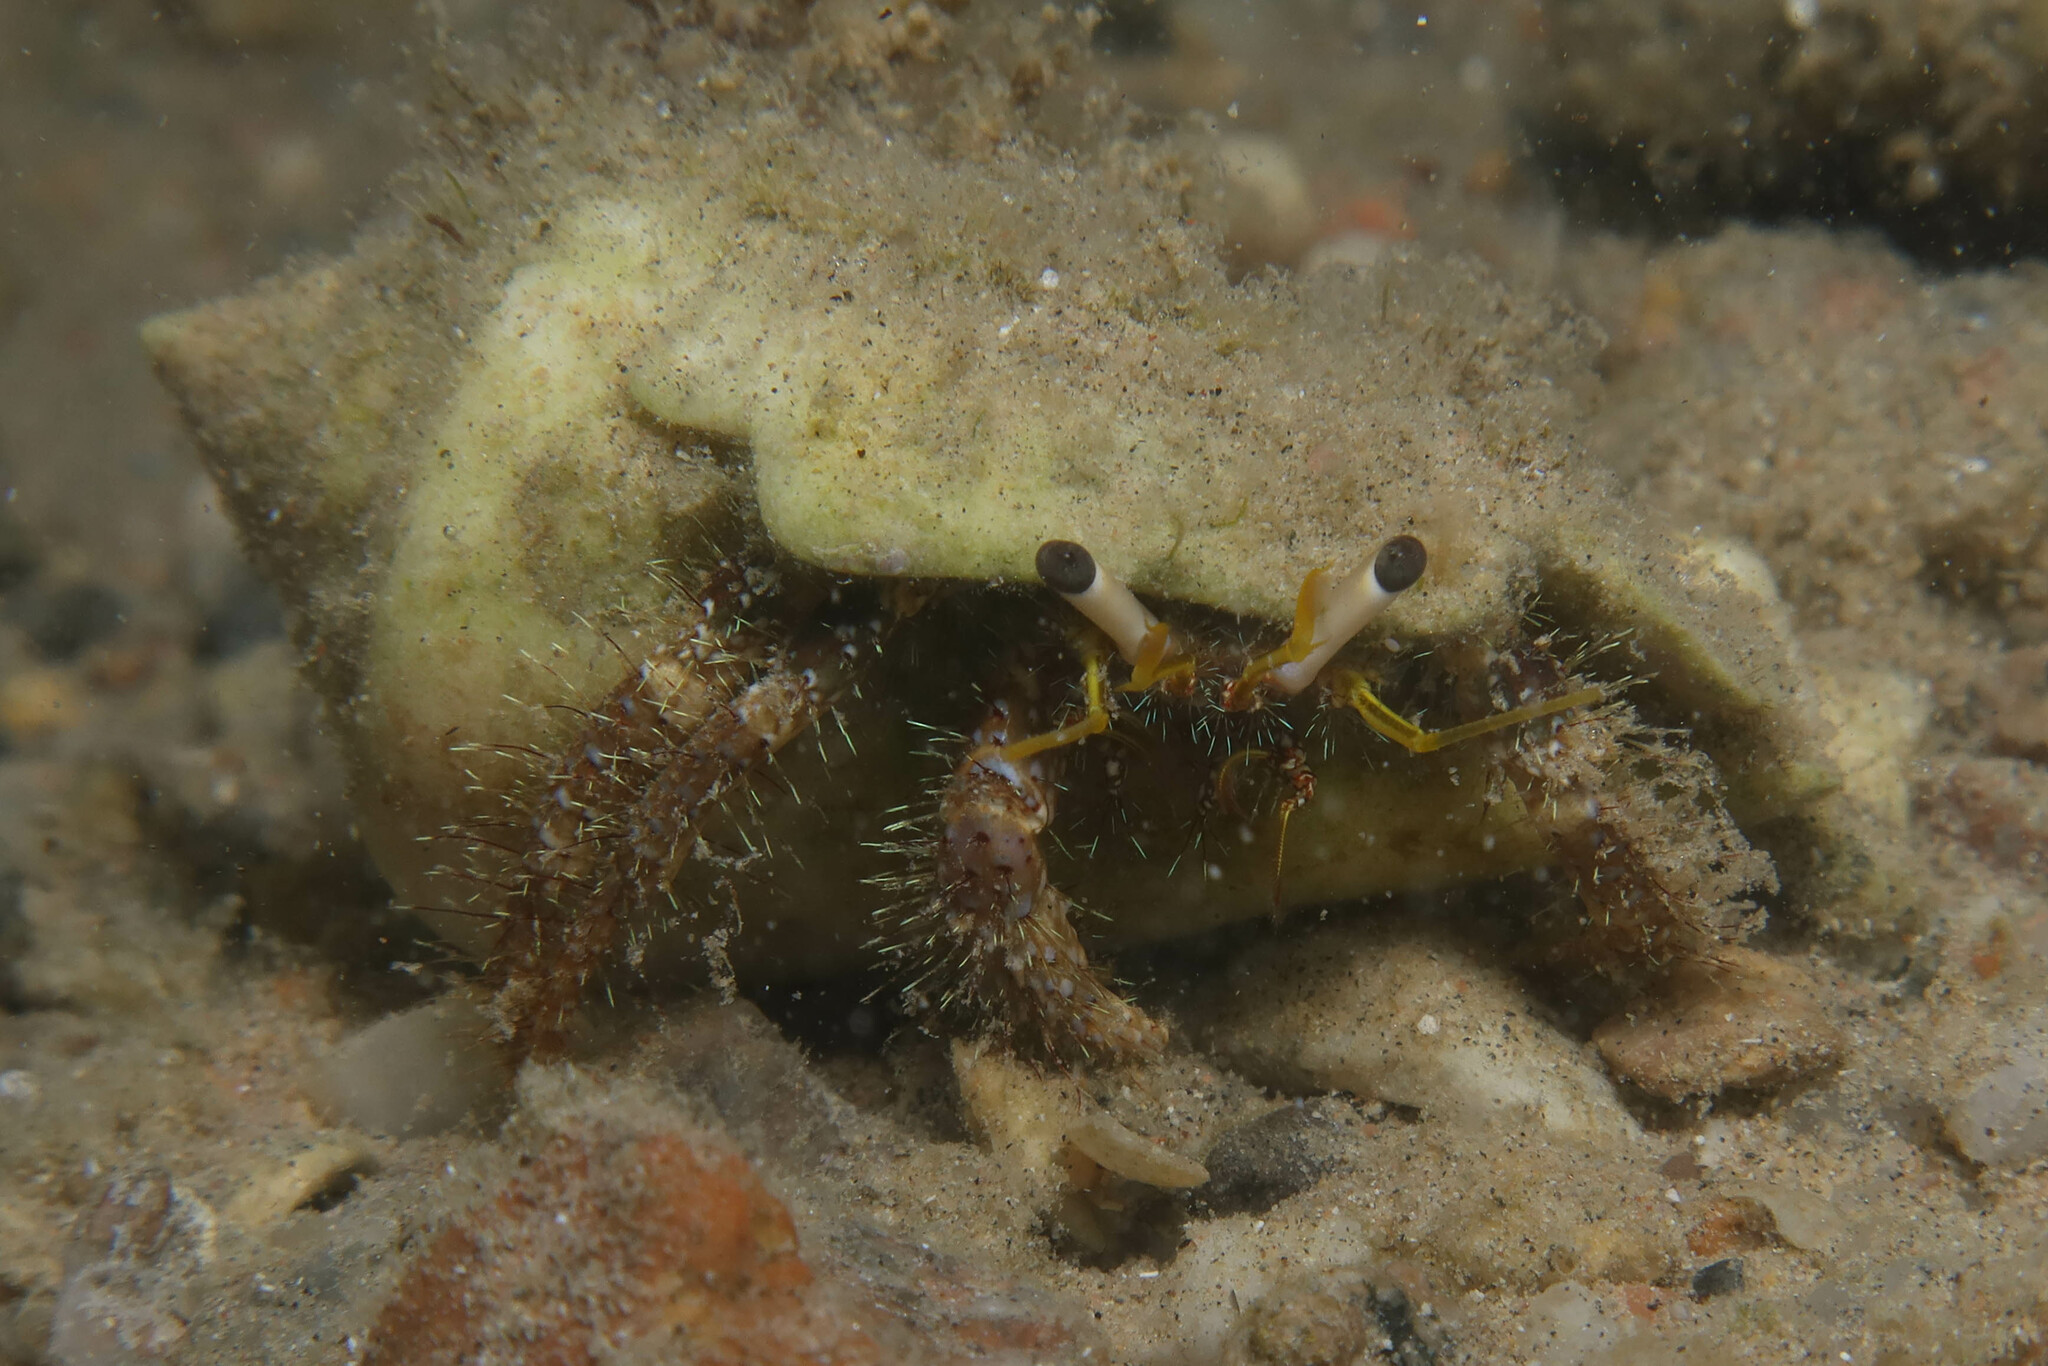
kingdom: Animalia
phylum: Arthropoda
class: Malacostraca
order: Decapoda
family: Diogenidae
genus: Dardanus
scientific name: Dardanus lagopodes
